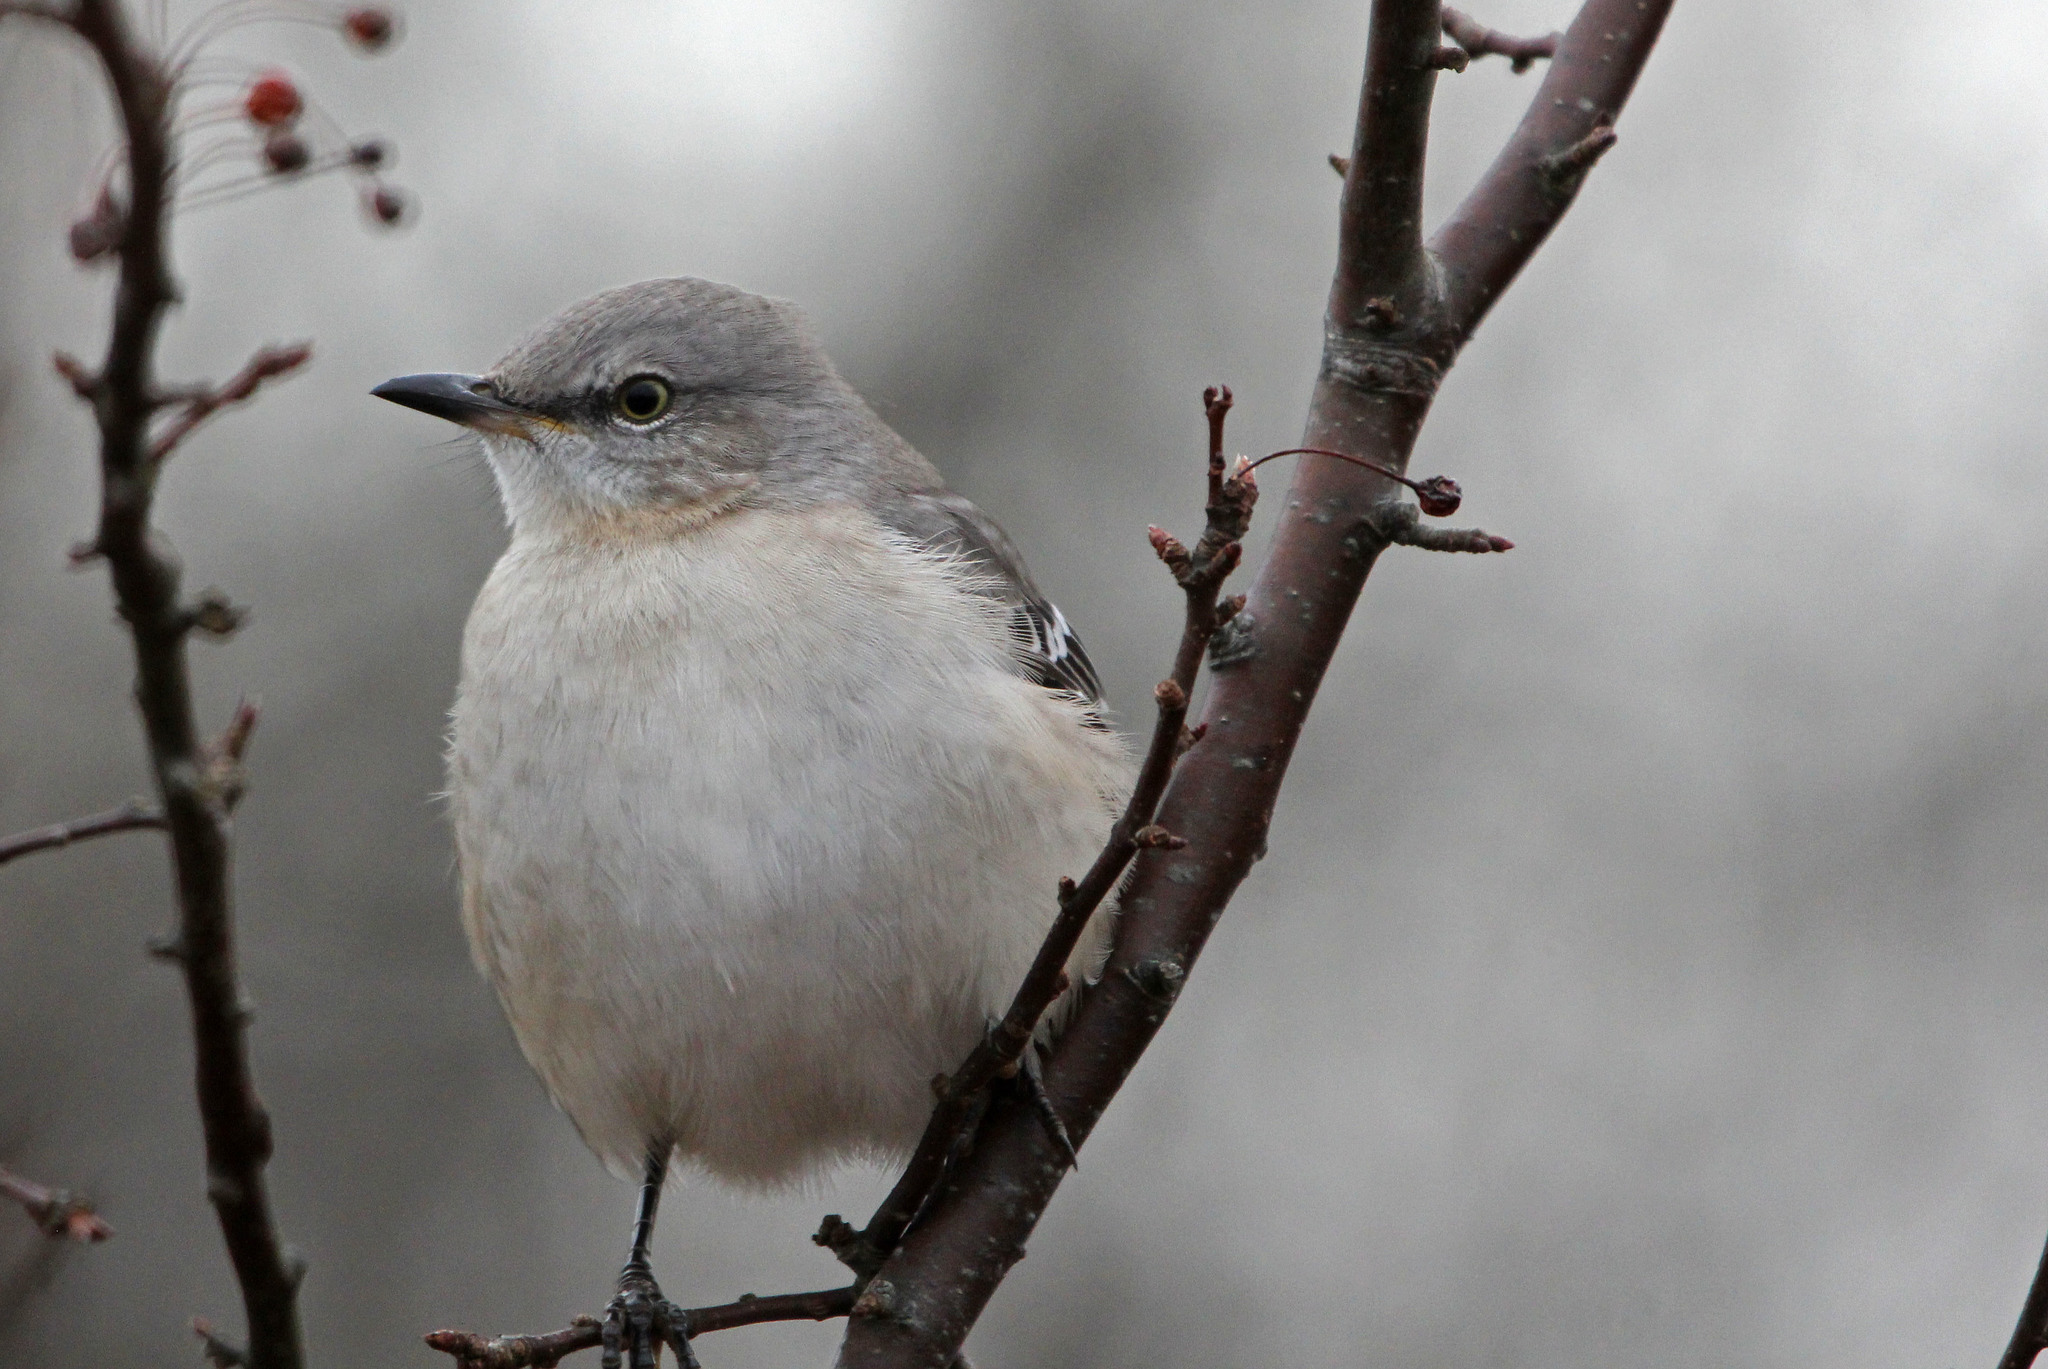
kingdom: Animalia
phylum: Chordata
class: Aves
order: Passeriformes
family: Mimidae
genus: Mimus
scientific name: Mimus polyglottos
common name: Northern mockingbird
